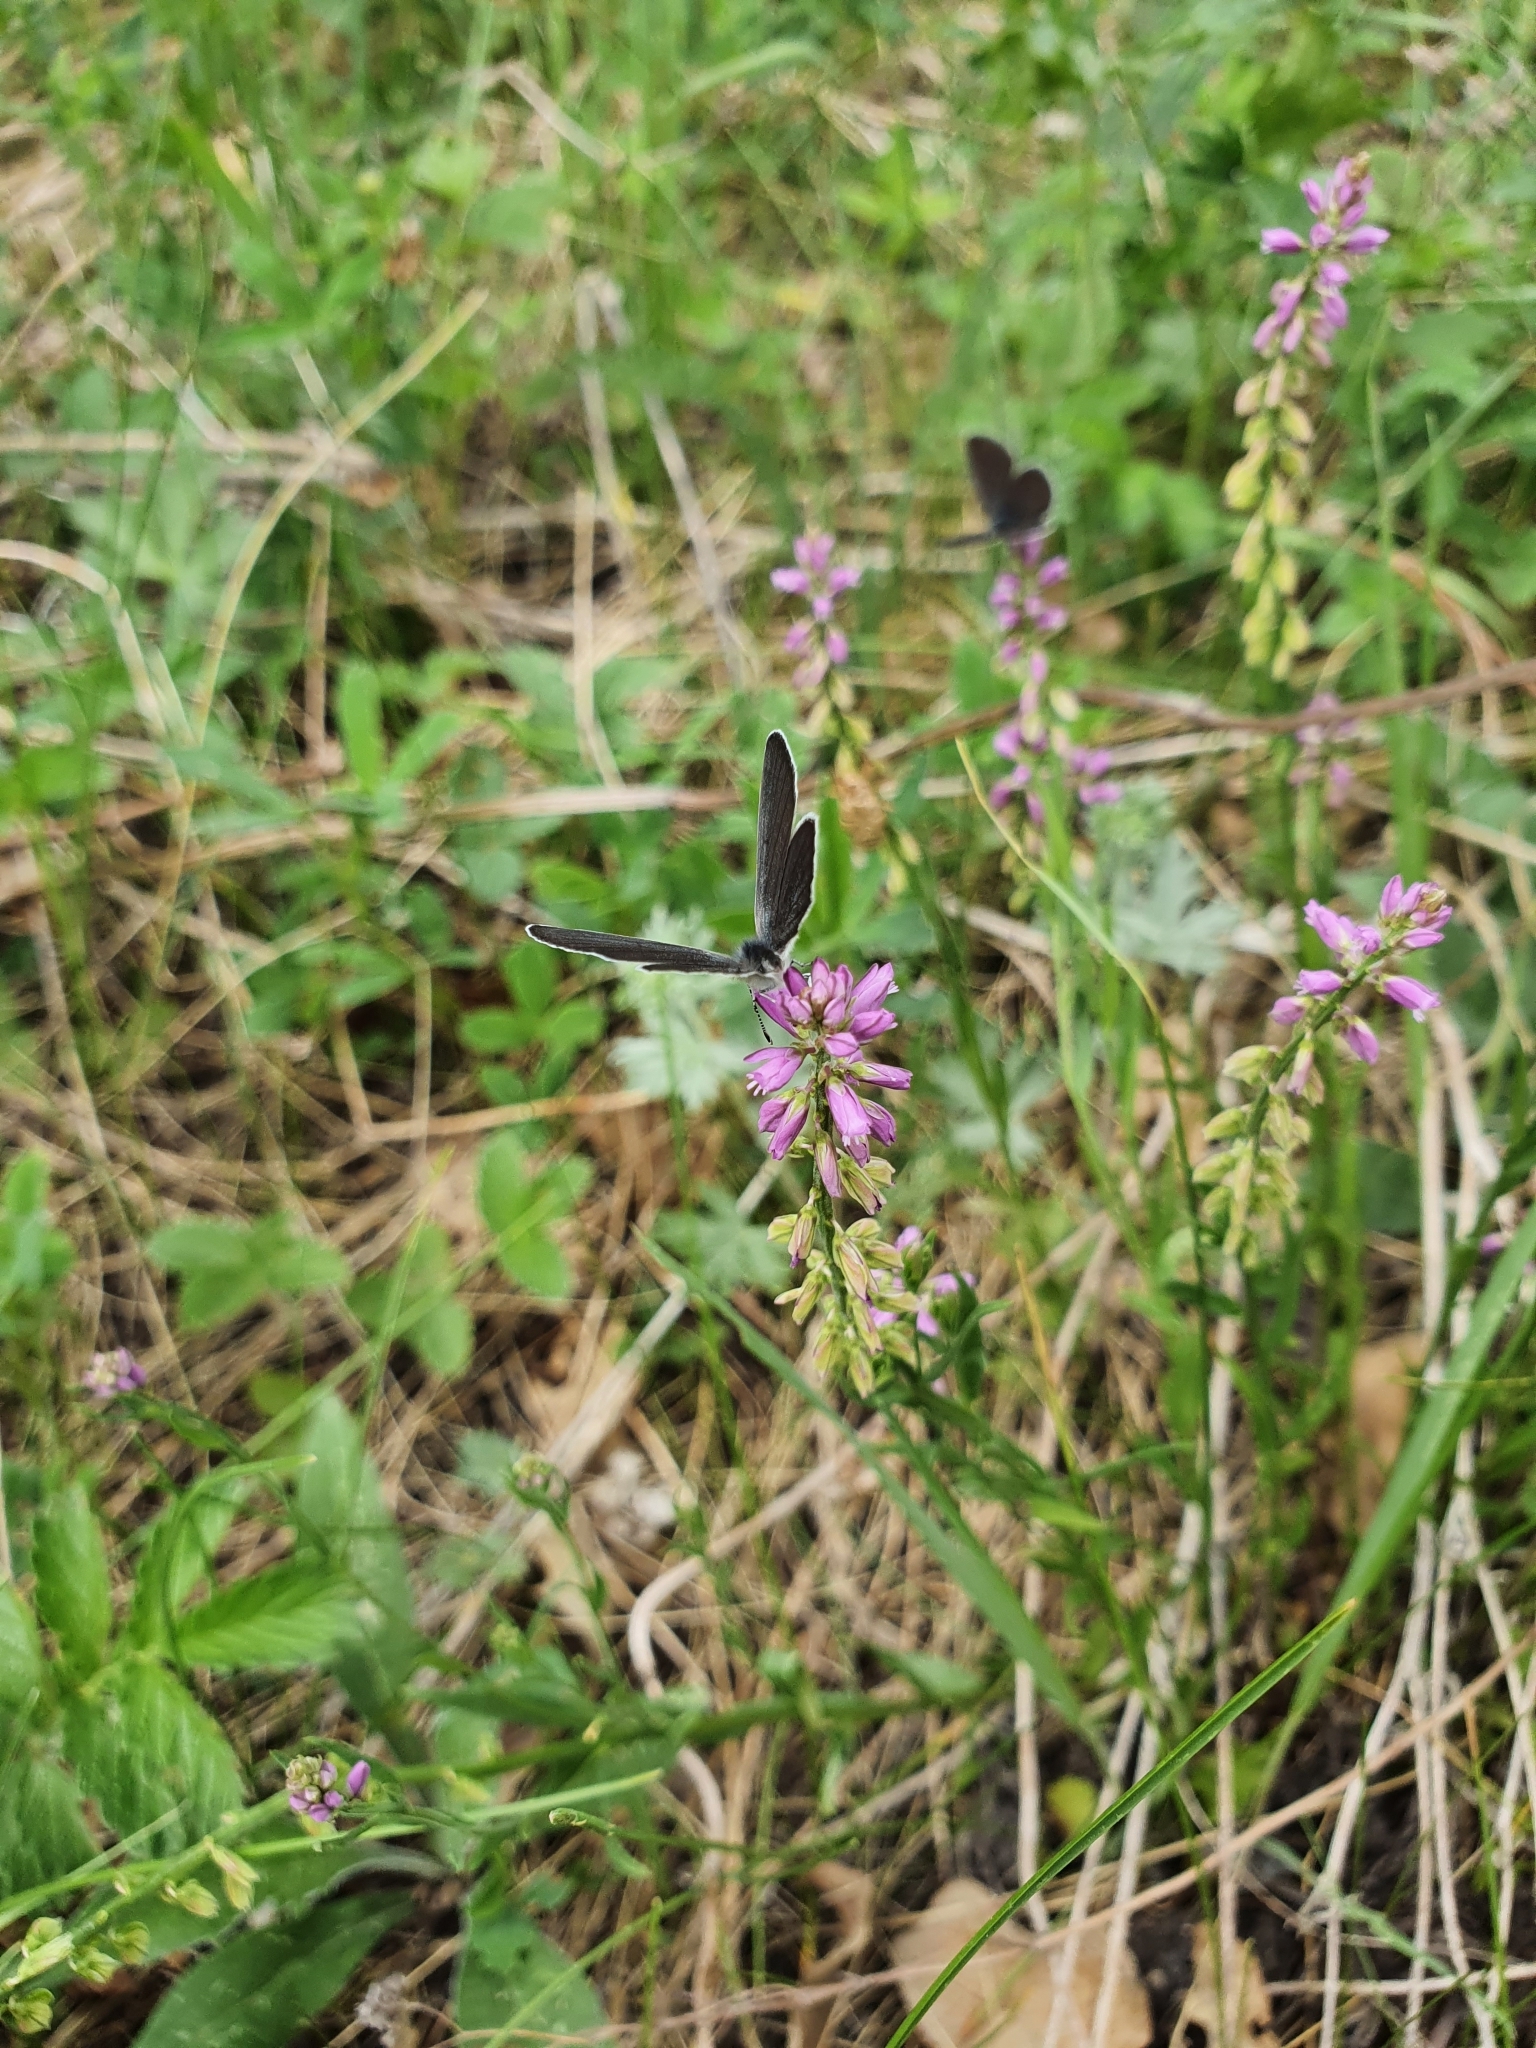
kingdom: Plantae
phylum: Tracheophyta
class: Magnoliopsida
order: Fabales
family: Polygalaceae
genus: Polygala
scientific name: Polygala comosa
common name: Tufted milkwort
